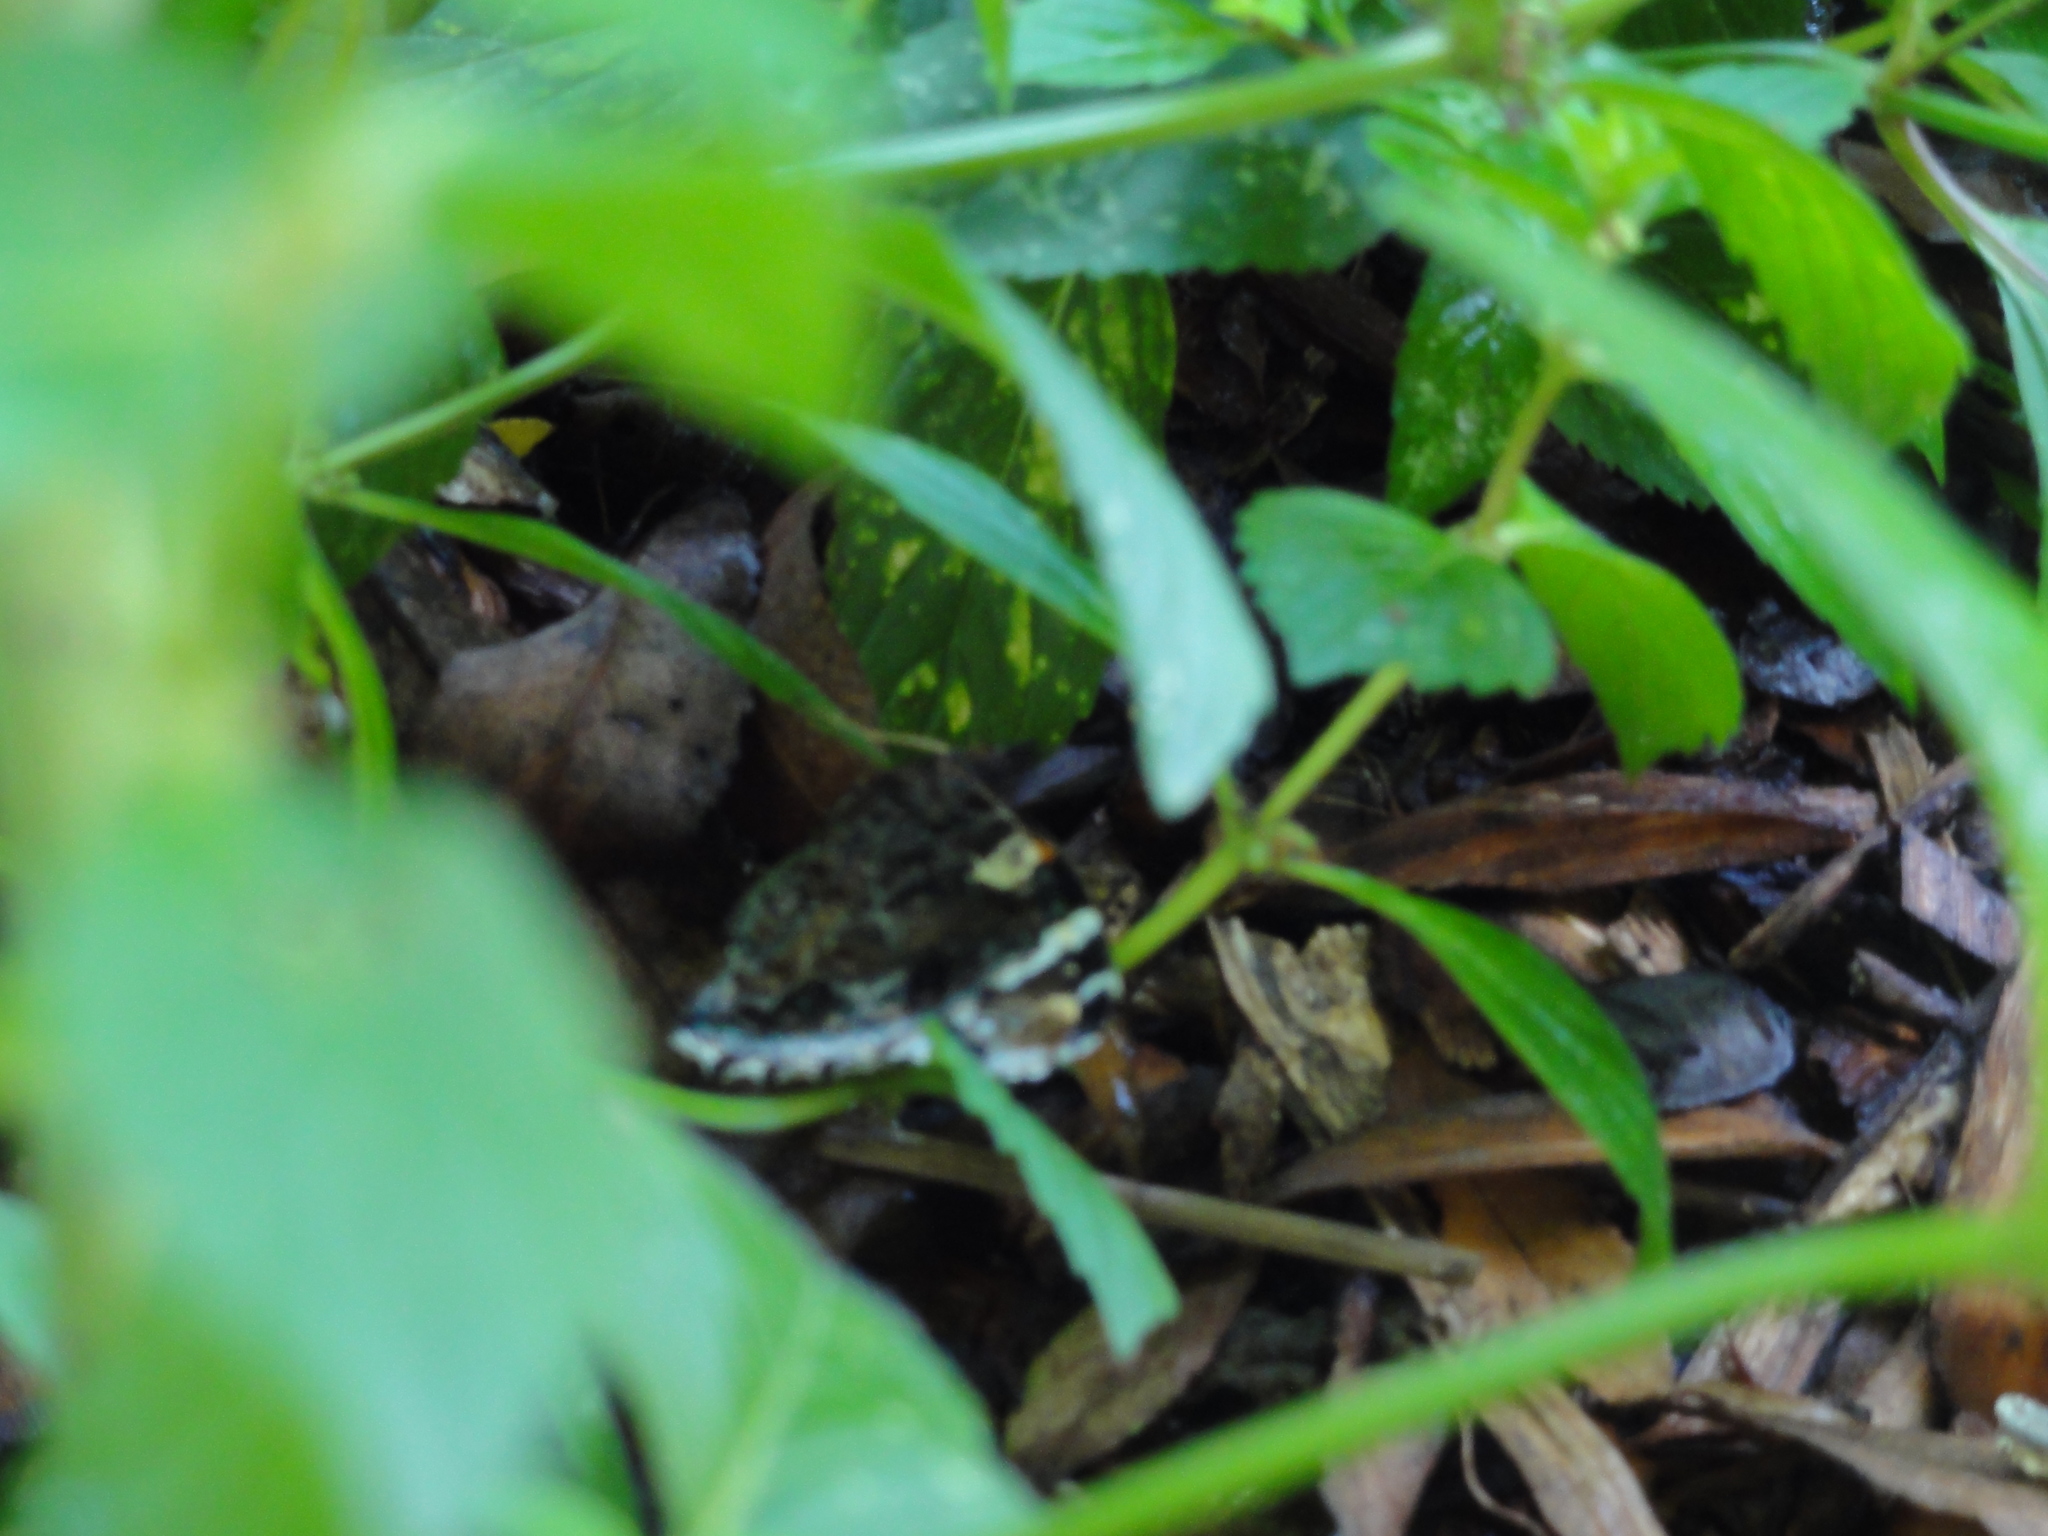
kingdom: Animalia
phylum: Arthropoda
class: Insecta
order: Lepidoptera
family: Nymphalidae
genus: Vanessa
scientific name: Vanessa atalanta
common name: Red admiral
